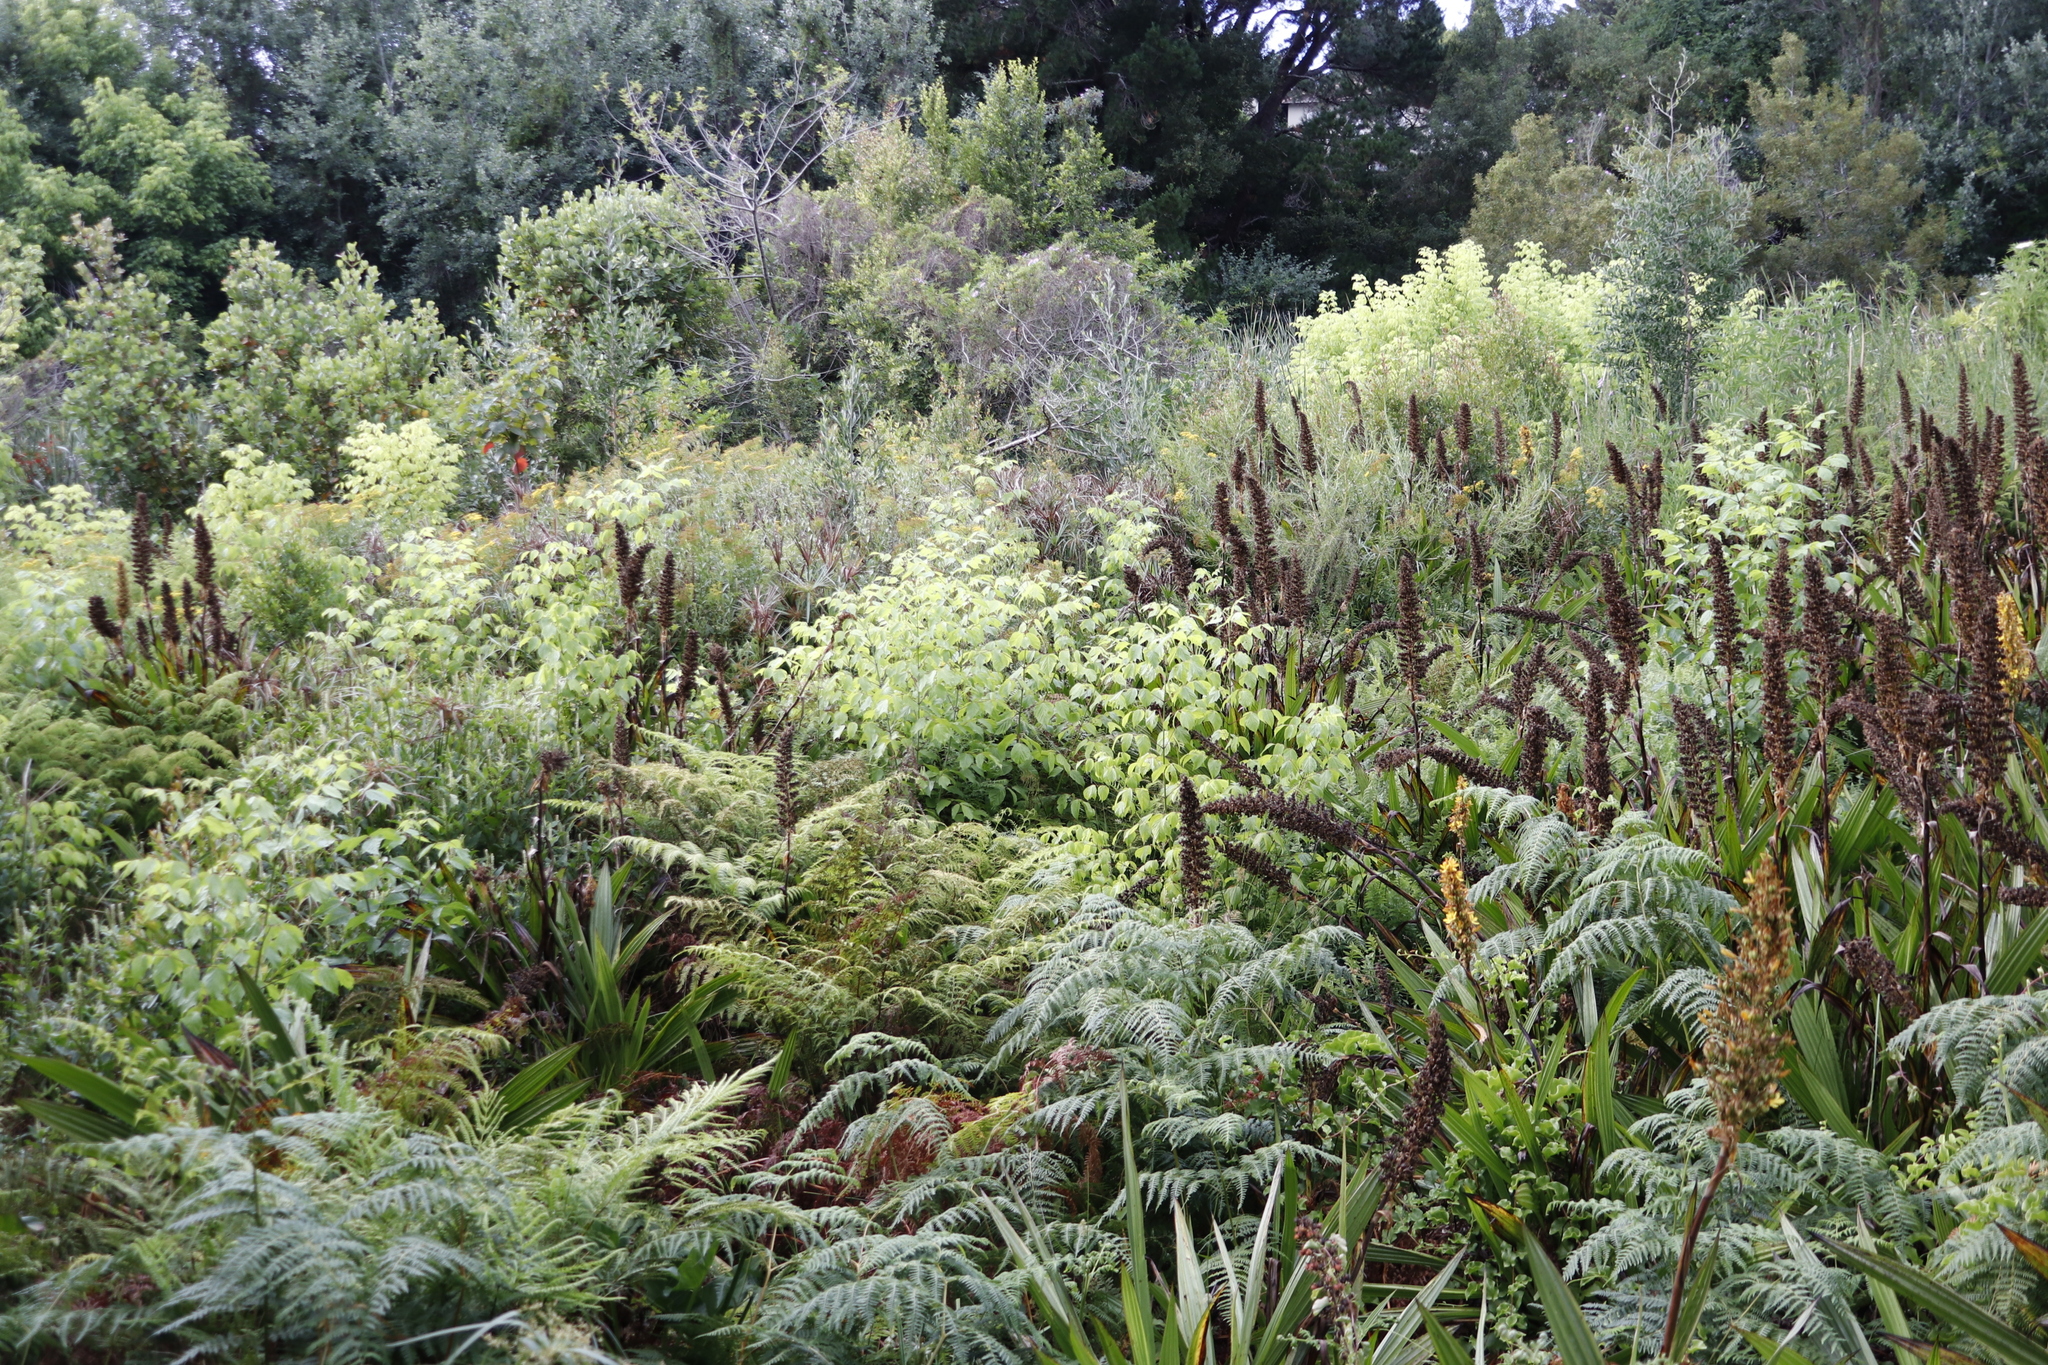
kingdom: Plantae
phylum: Tracheophyta
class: Magnoliopsida
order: Sapindales
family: Sapindaceae
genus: Acer
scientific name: Acer negundo
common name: Ashleaf maple
